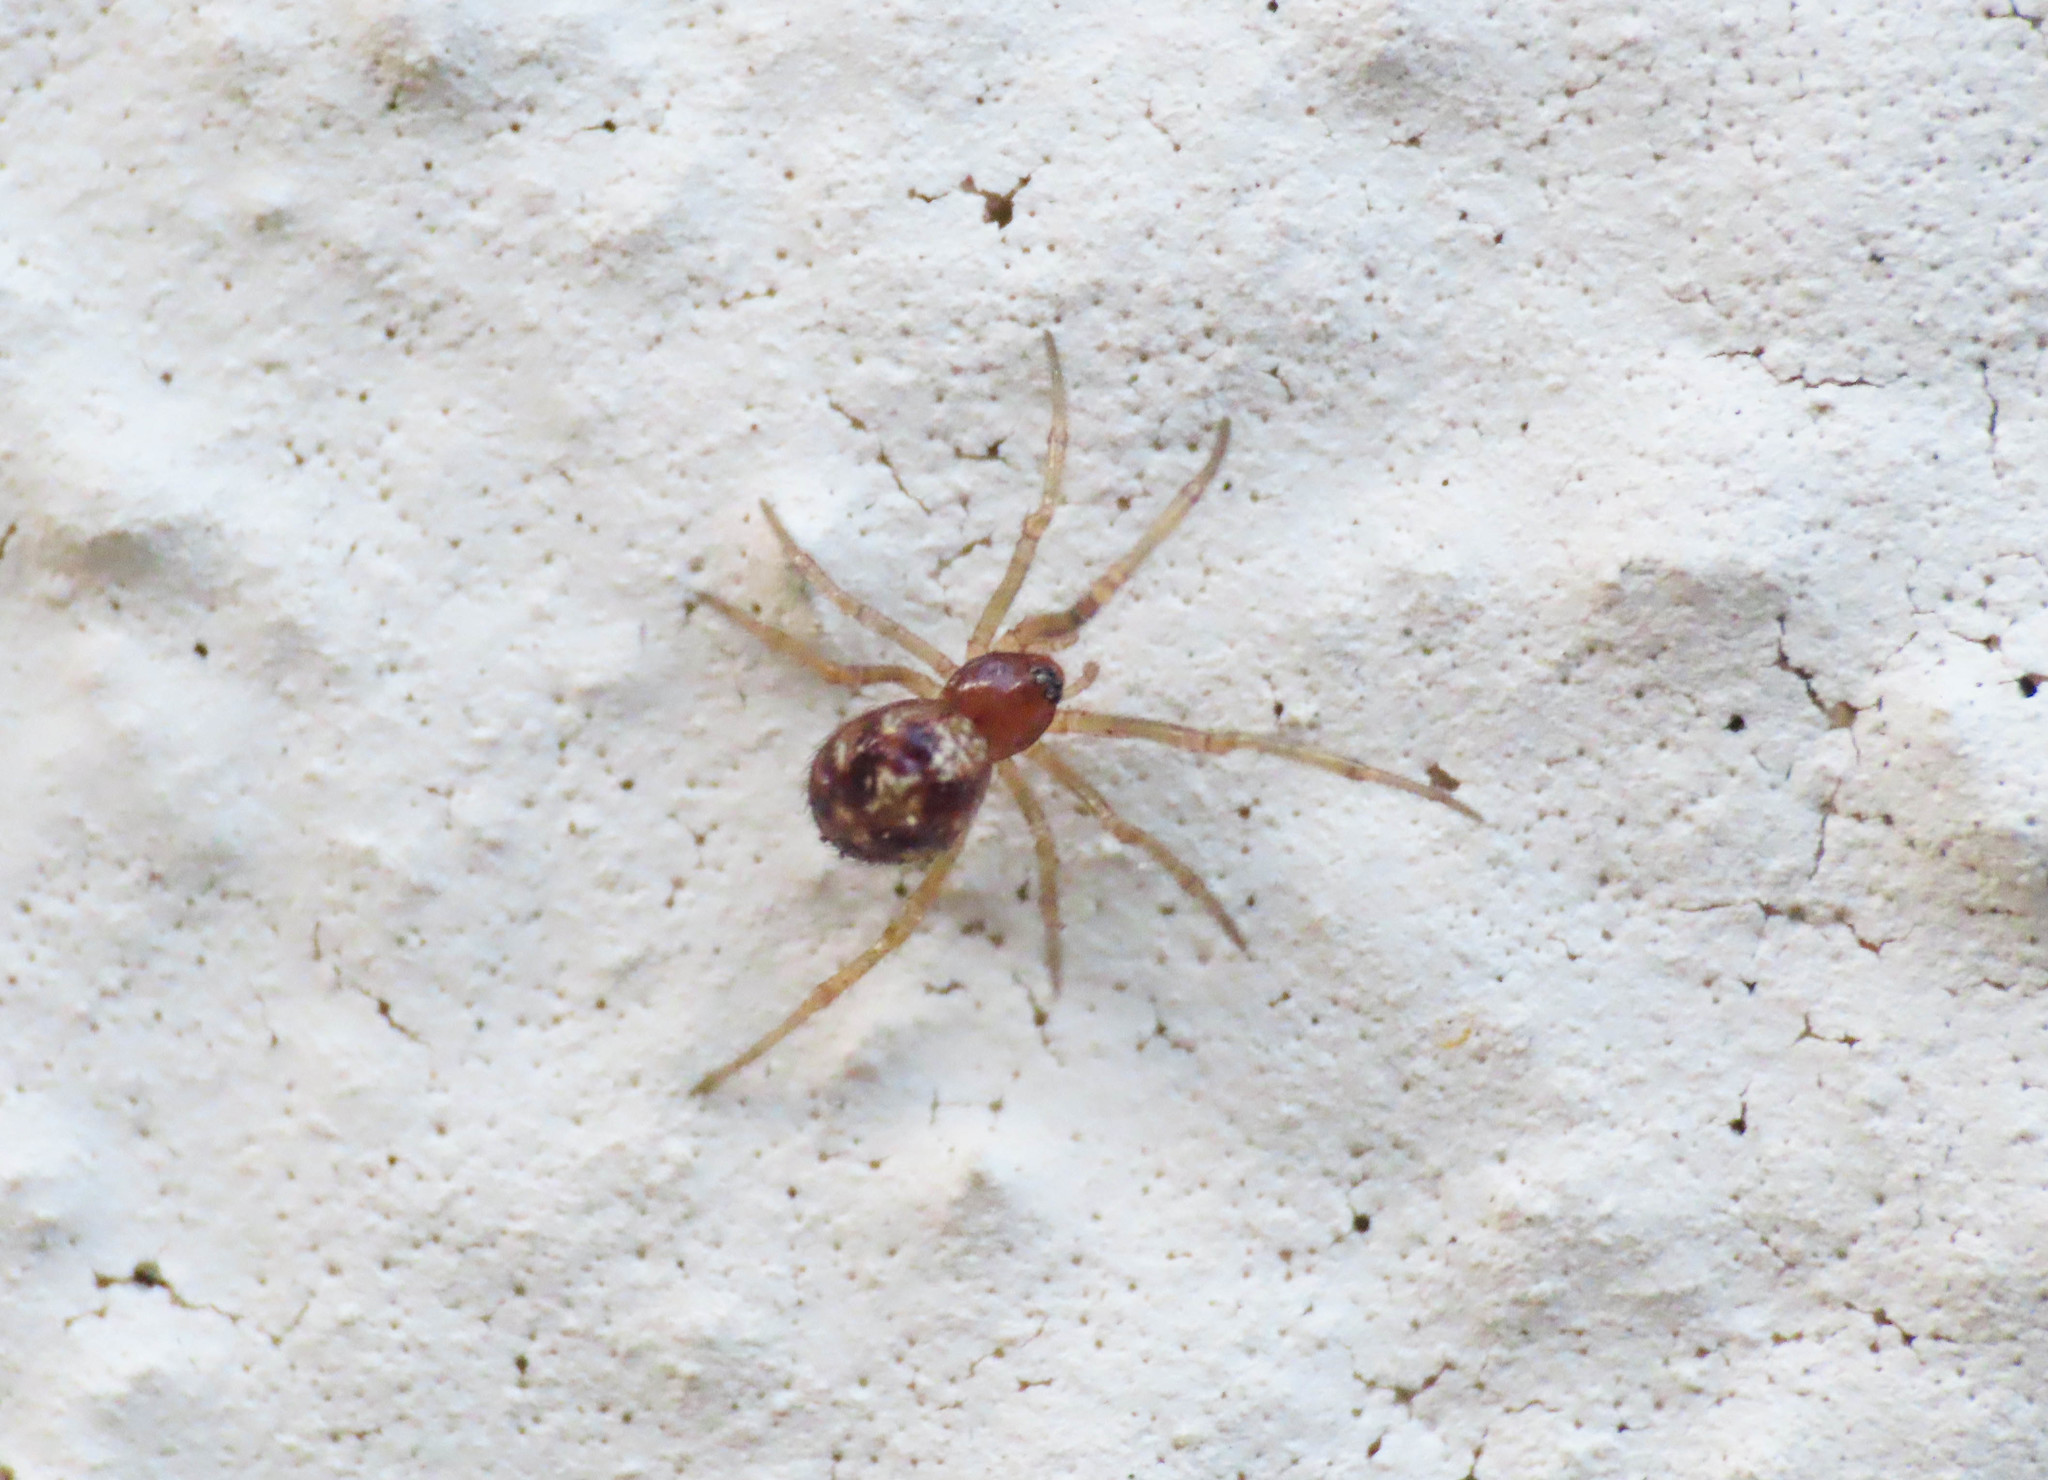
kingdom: Animalia
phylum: Arthropoda
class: Arachnida
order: Araneae
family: Theridiidae
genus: Steatoda
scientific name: Steatoda triangulosa
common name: Triangulate bud spider
